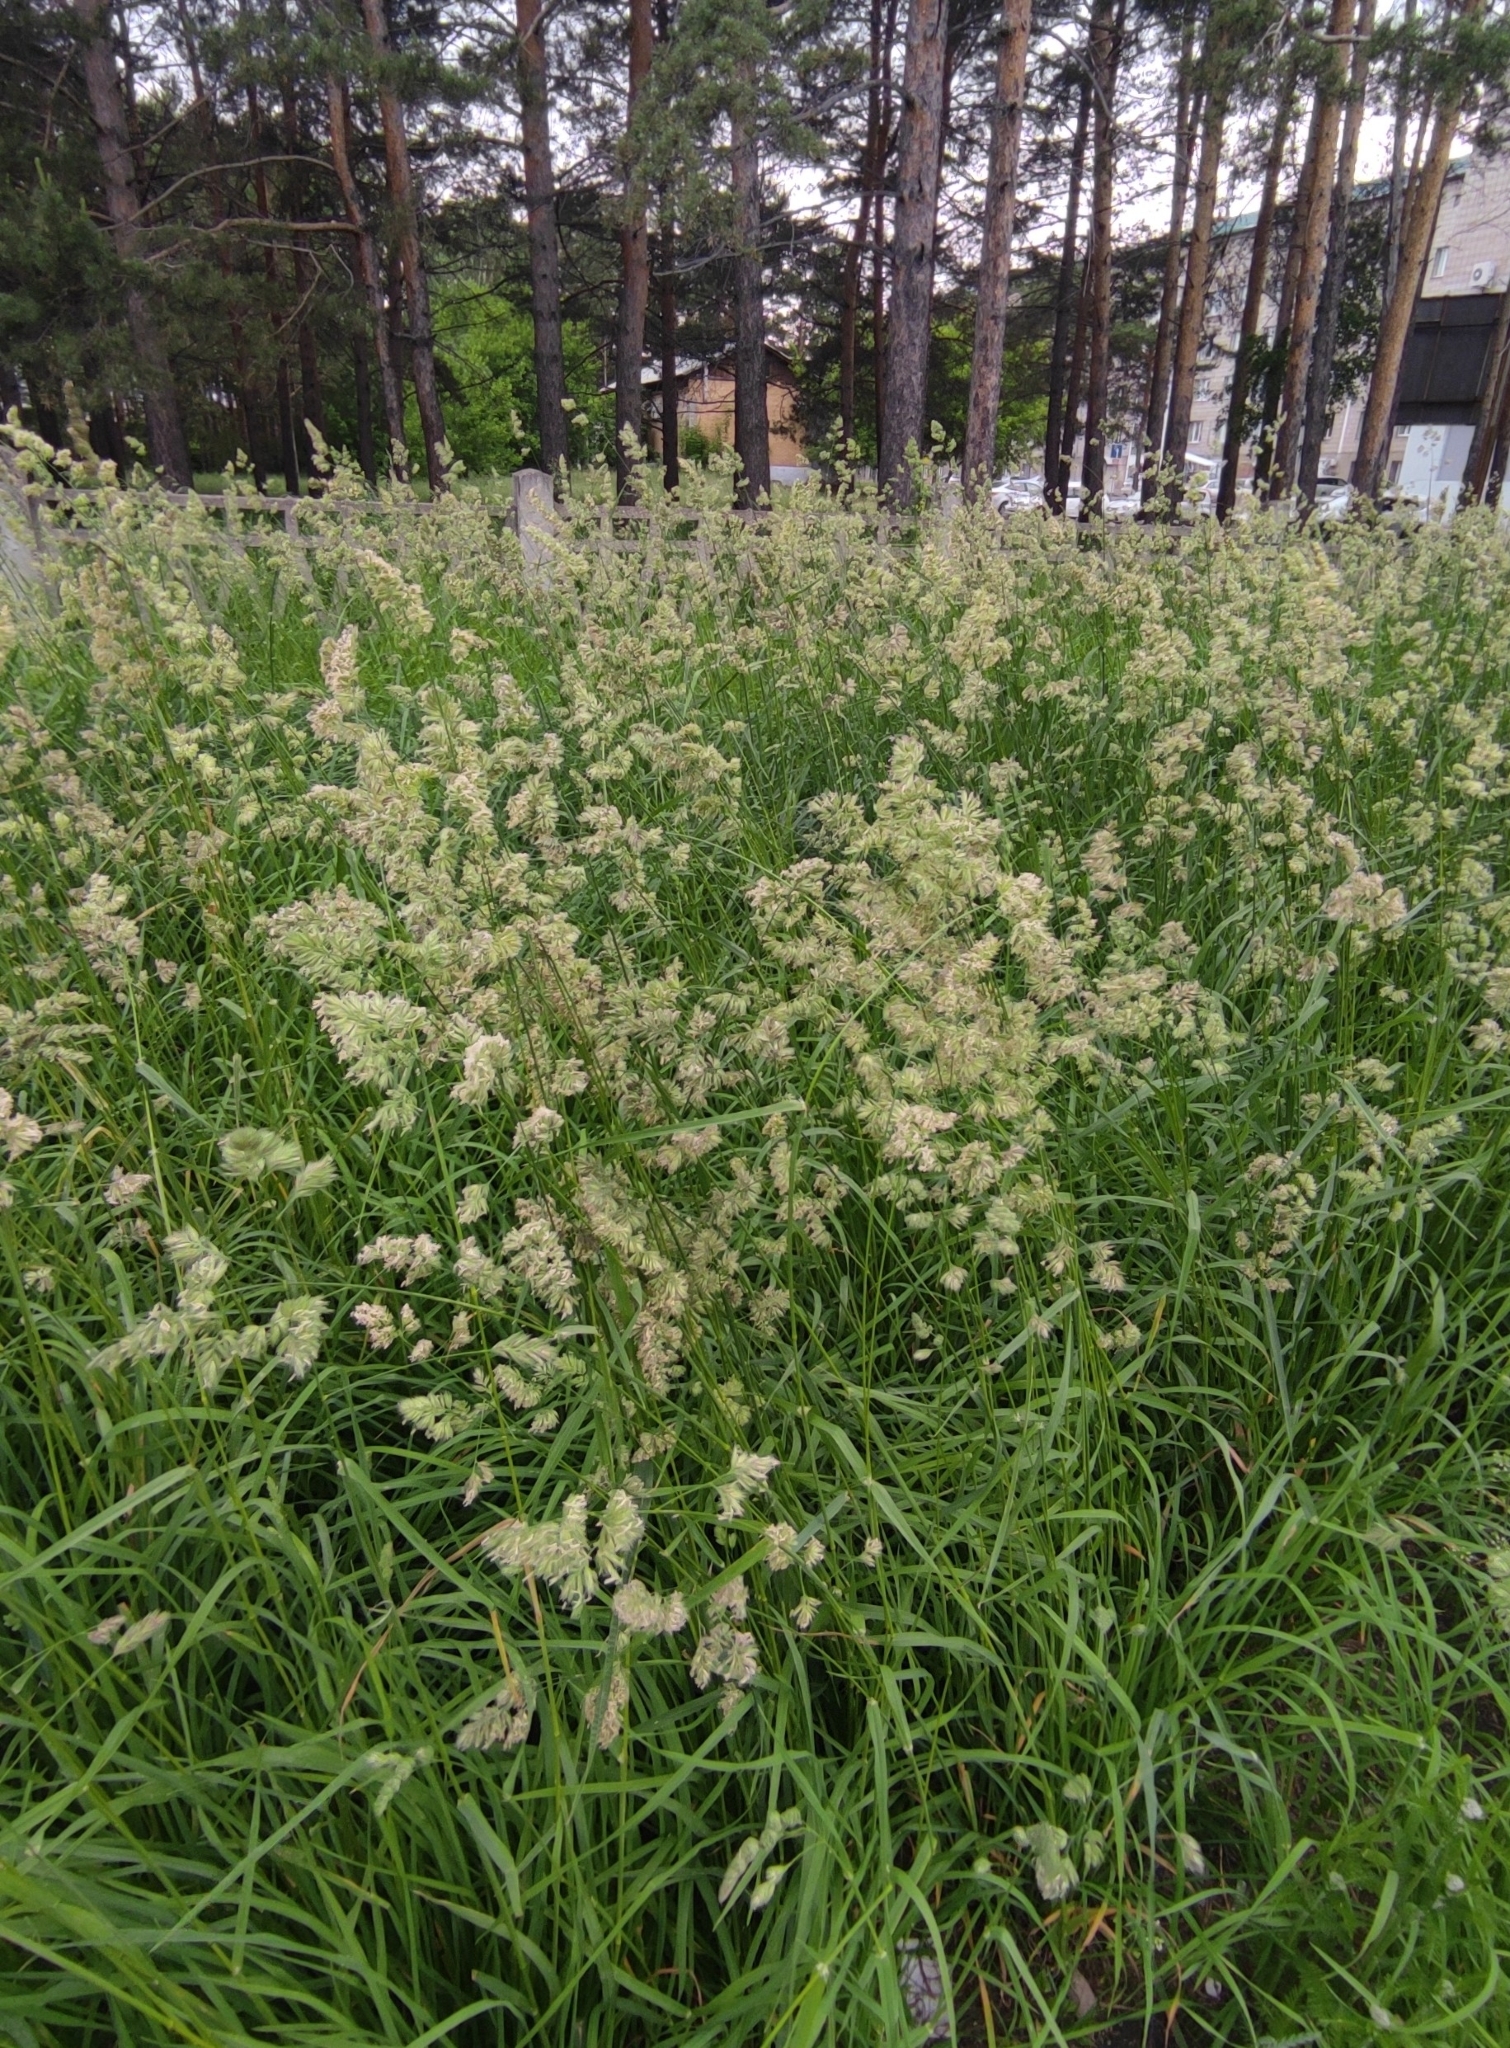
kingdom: Plantae
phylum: Tracheophyta
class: Liliopsida
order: Poales
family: Poaceae
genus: Dactylis
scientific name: Dactylis glomerata
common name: Orchardgrass
